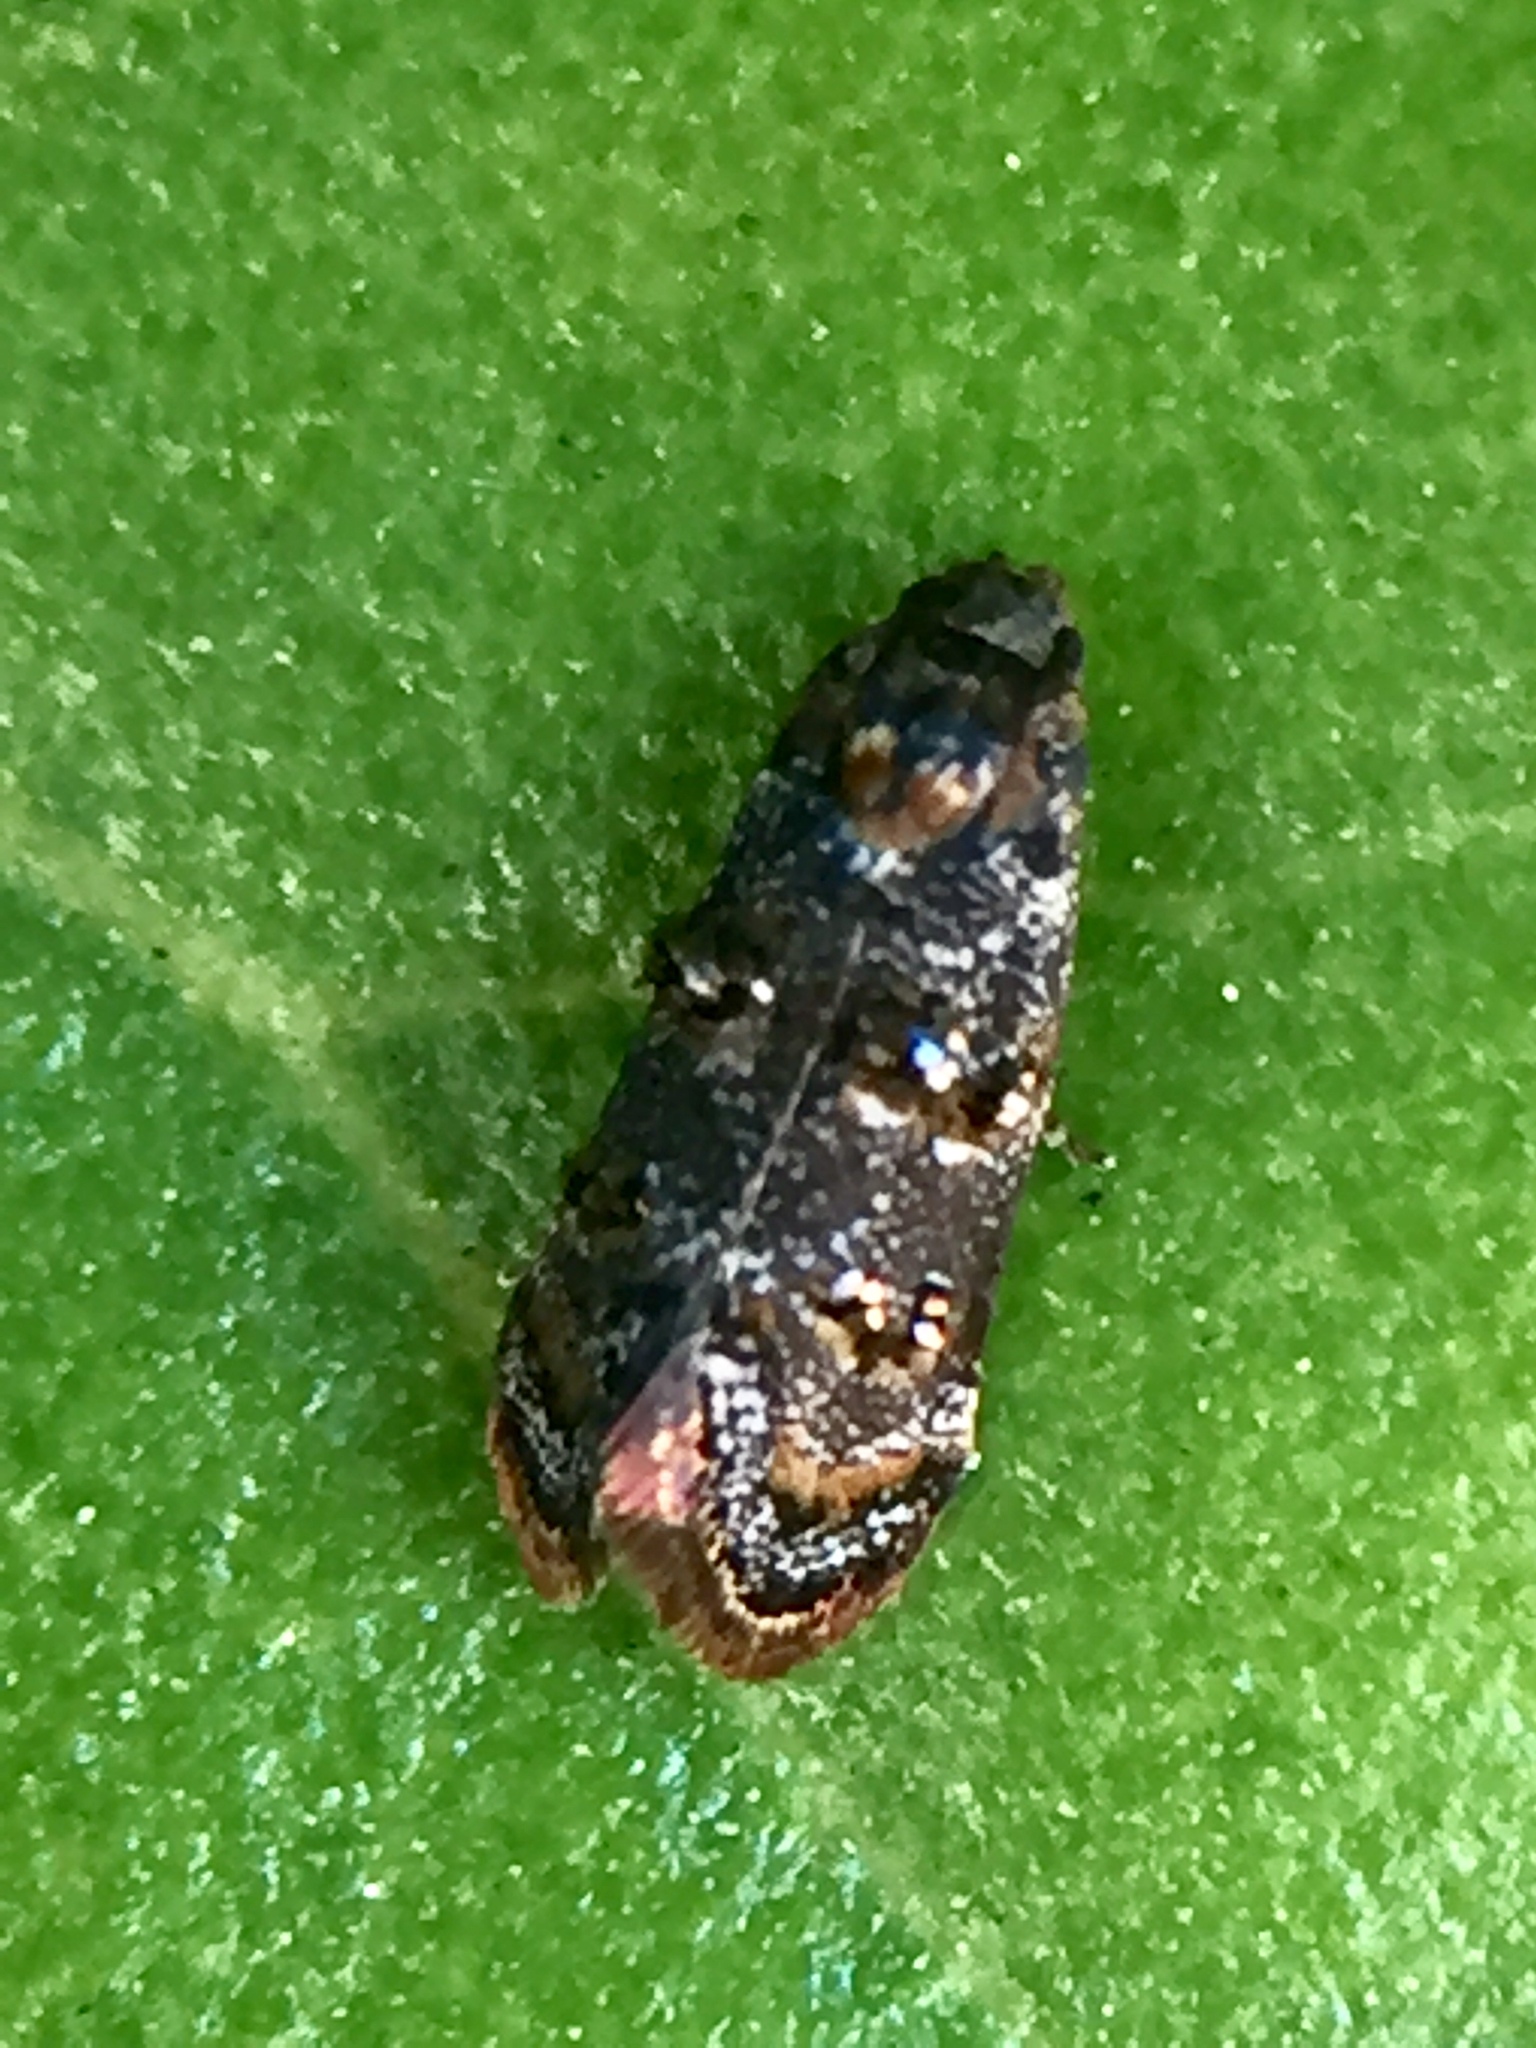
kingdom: Animalia
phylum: Arthropoda
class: Insecta
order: Lepidoptera
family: Oecophoridae
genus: Corocosma
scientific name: Corocosma memorabilis
